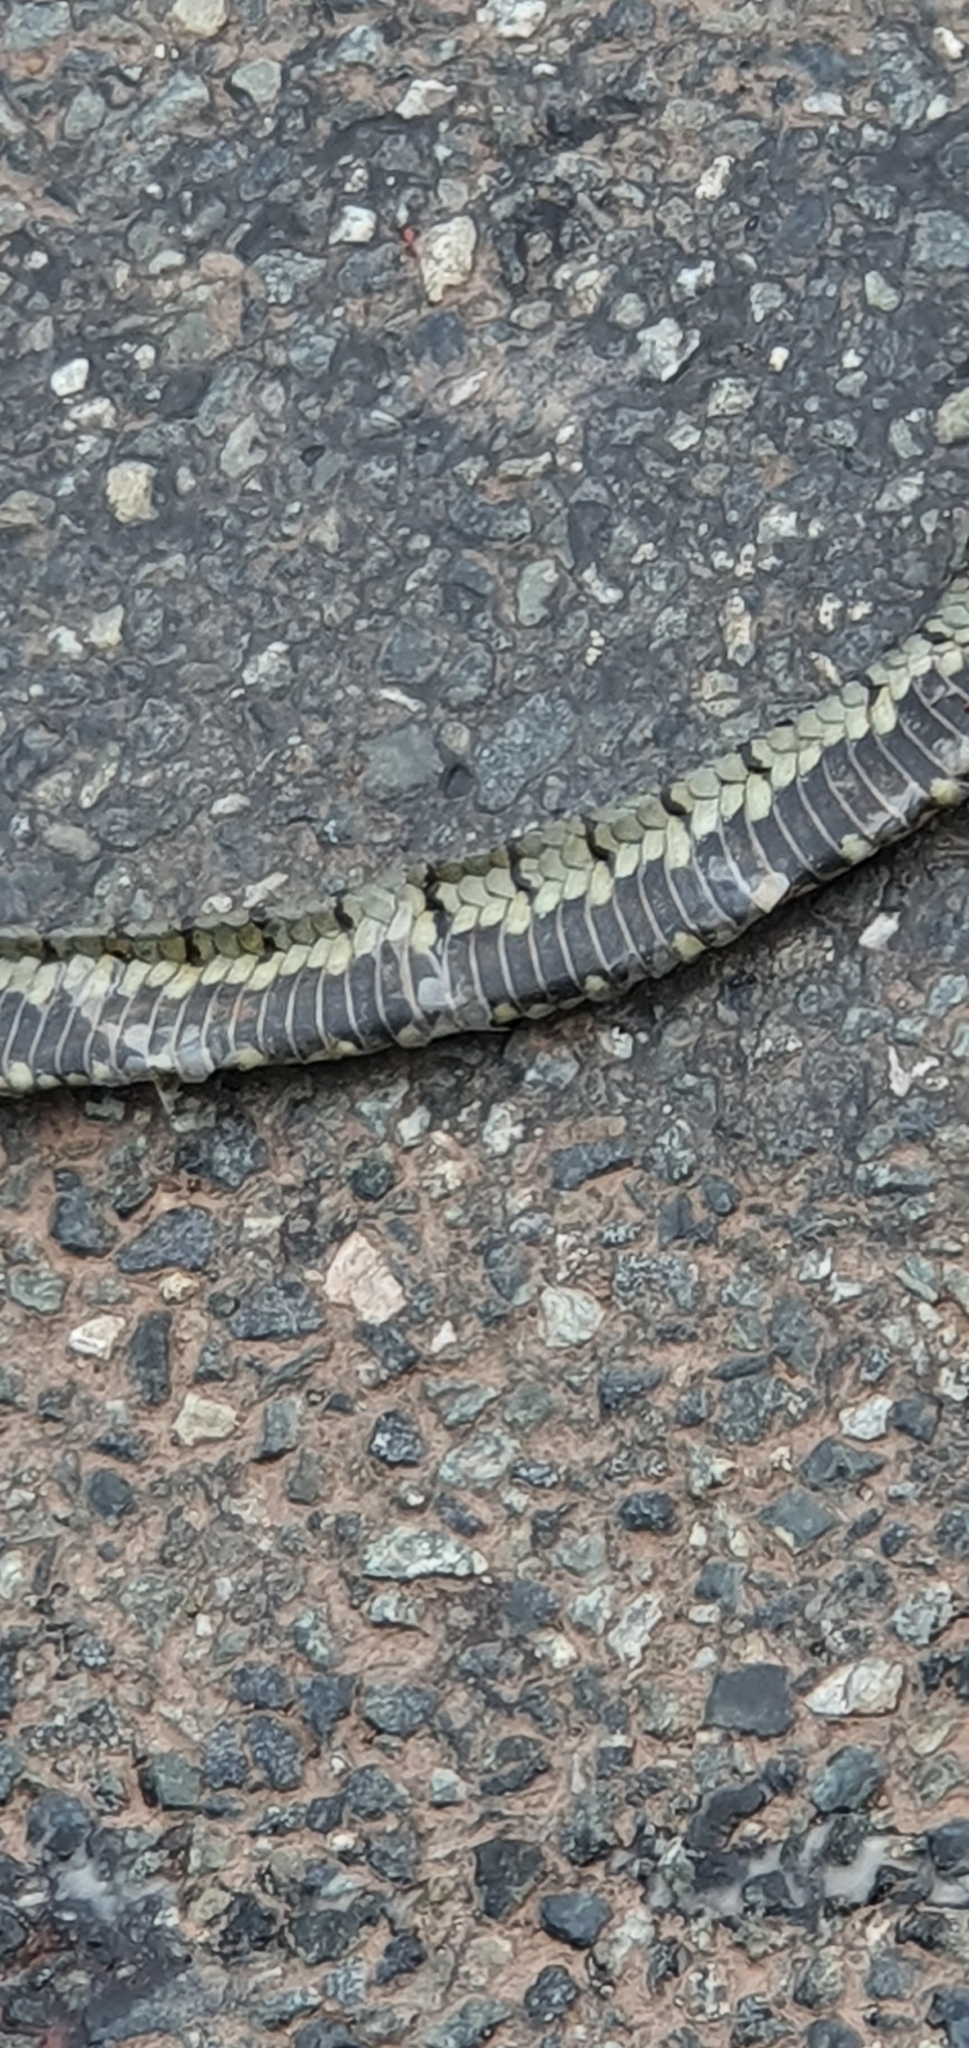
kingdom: Animalia
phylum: Chordata
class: Squamata
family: Colubridae
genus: Natrix
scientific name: Natrix helvetica
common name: Banded grass snake
